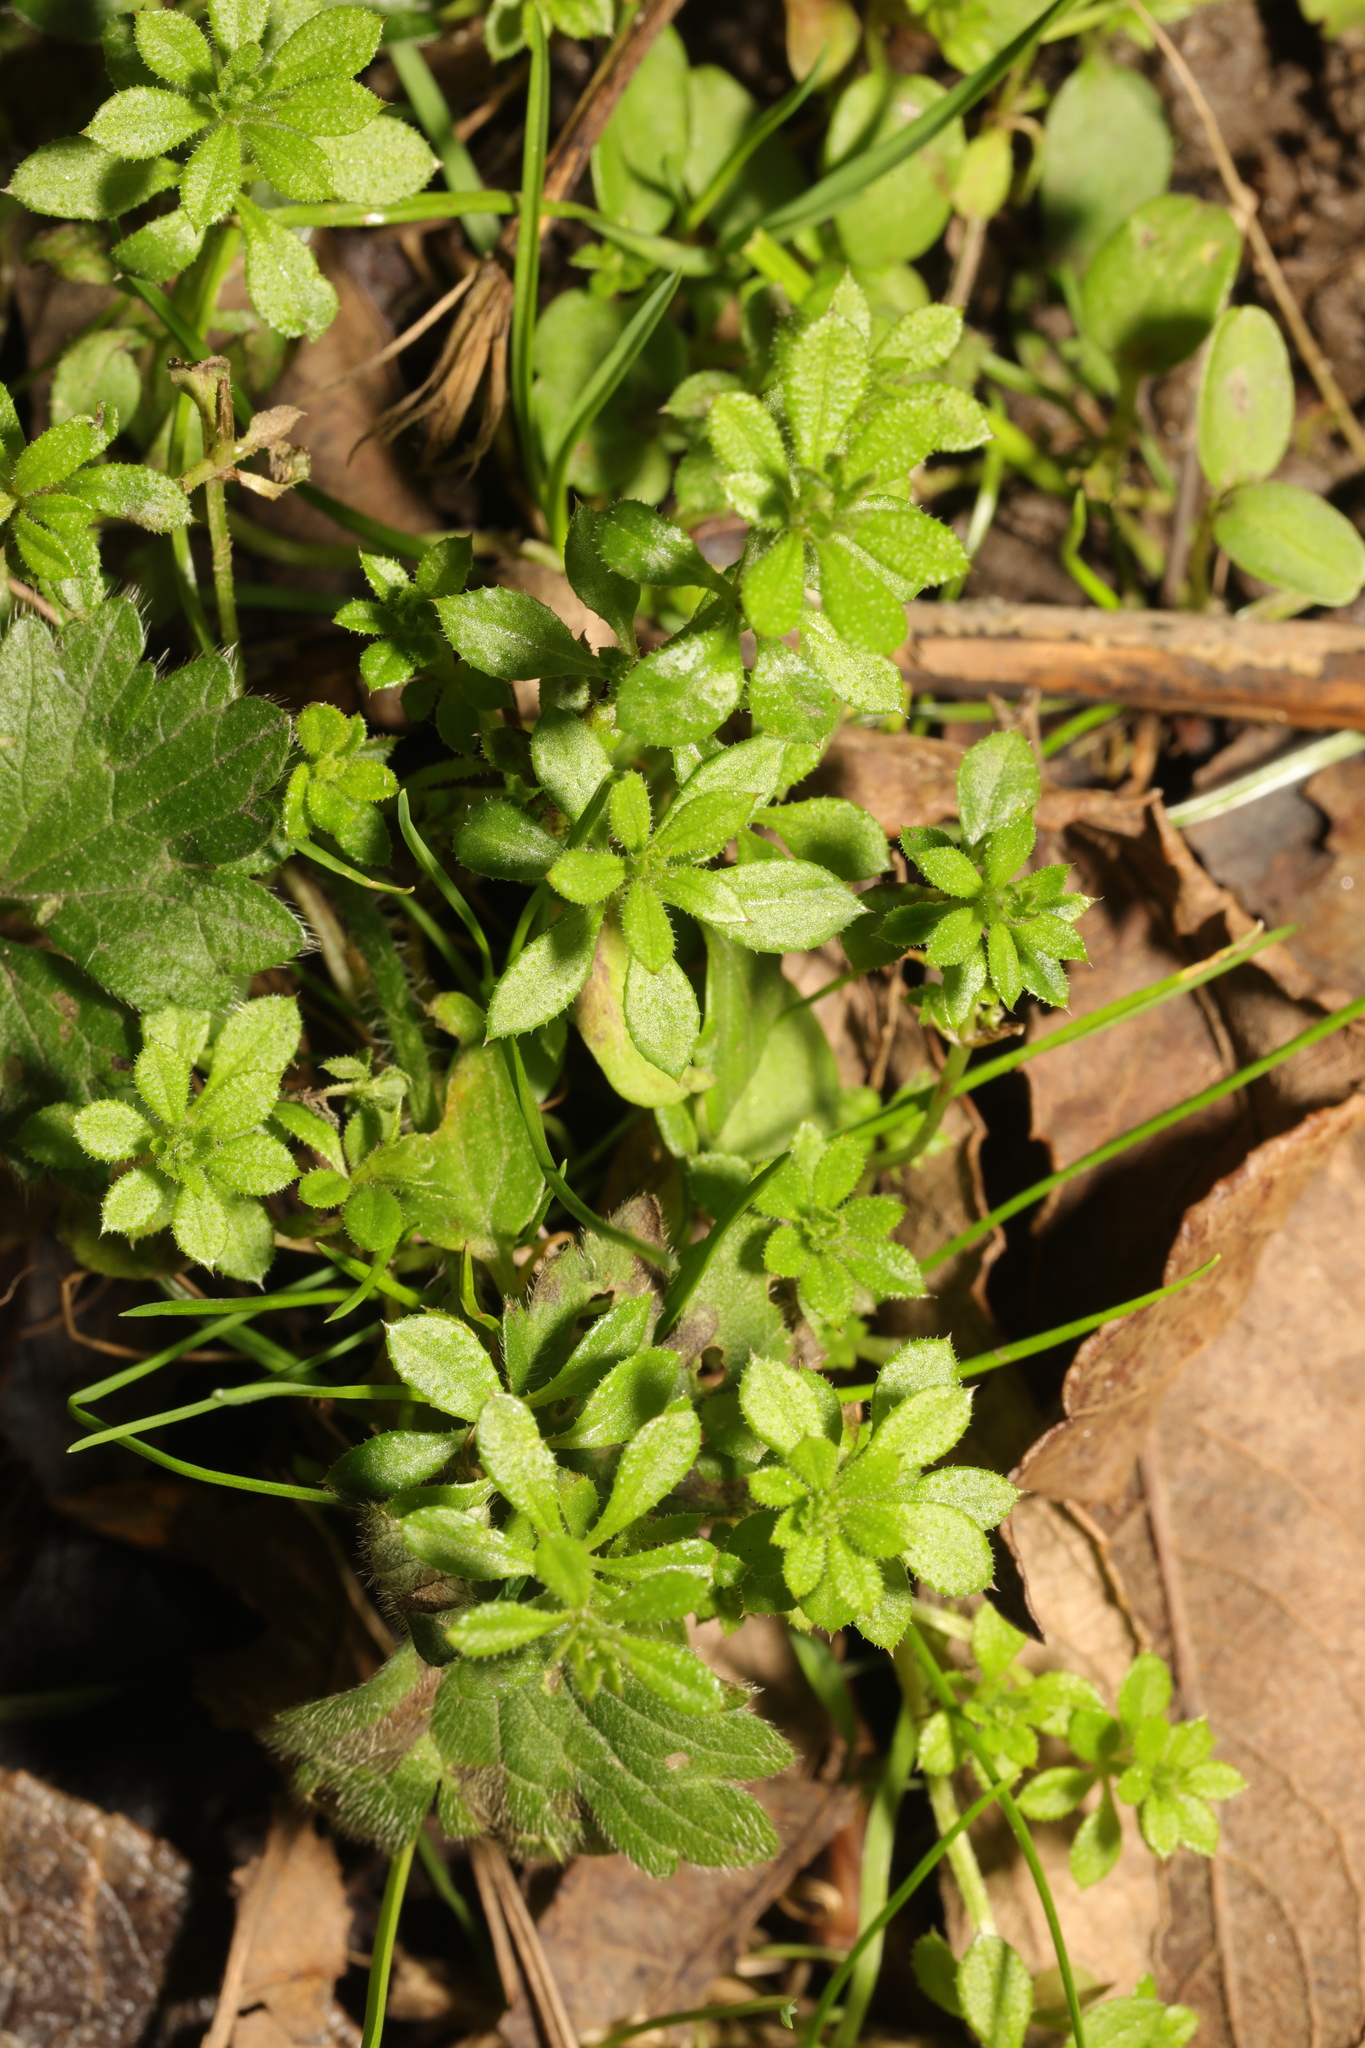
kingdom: Plantae
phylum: Tracheophyta
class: Magnoliopsida
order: Gentianales
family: Rubiaceae
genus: Galium
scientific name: Galium aparine
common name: Cleavers
